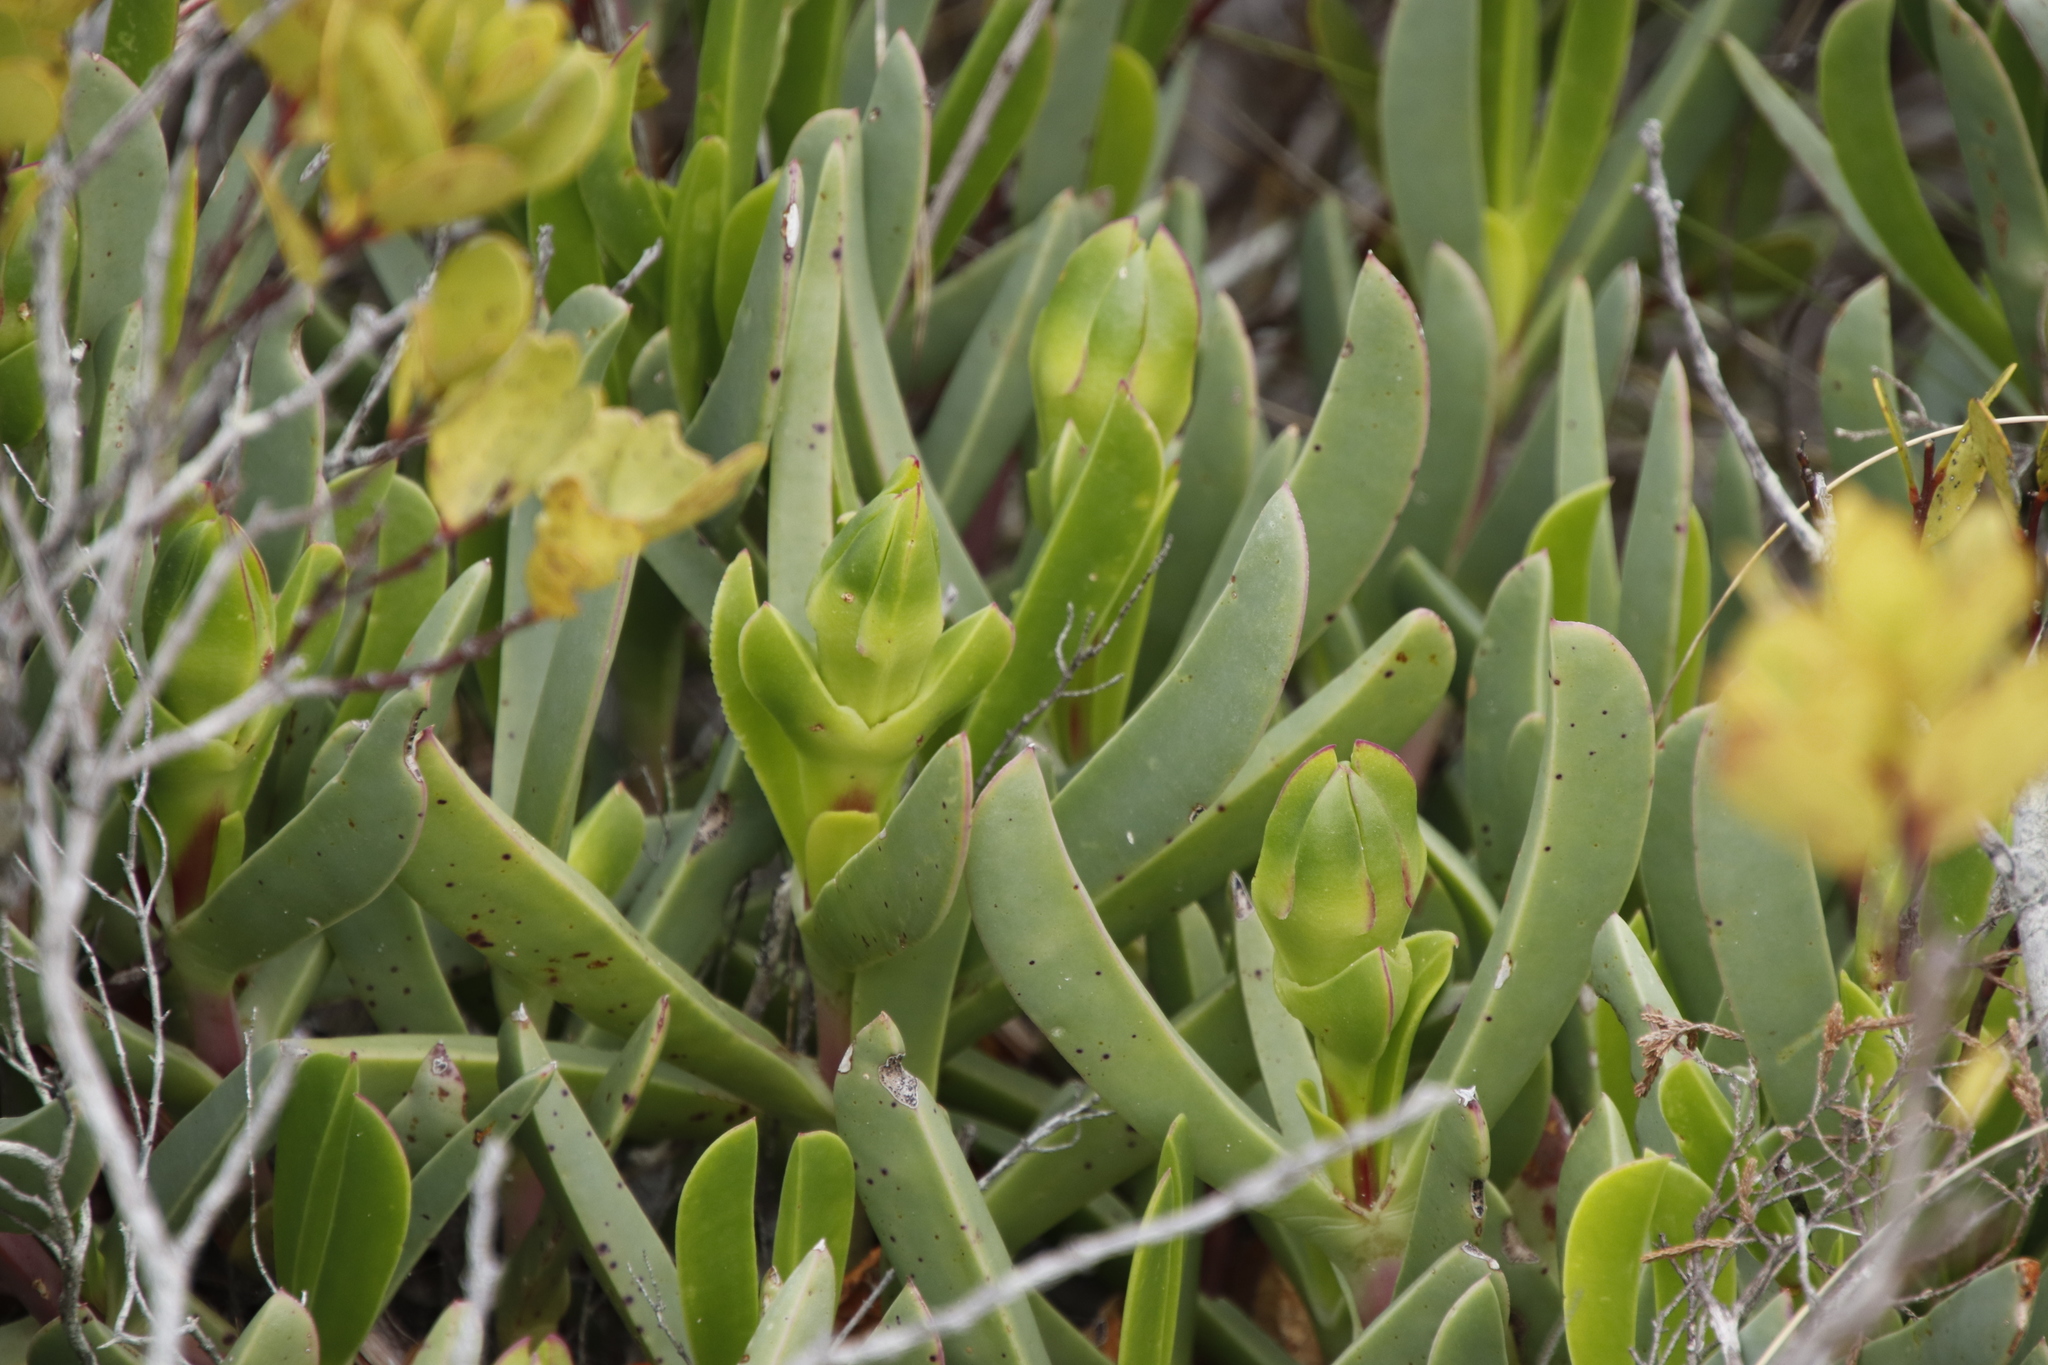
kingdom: Plantae
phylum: Tracheophyta
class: Magnoliopsida
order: Caryophyllales
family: Aizoaceae
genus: Carpobrotus
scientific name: Carpobrotus acinaciformis
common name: Sally-my-handsome
